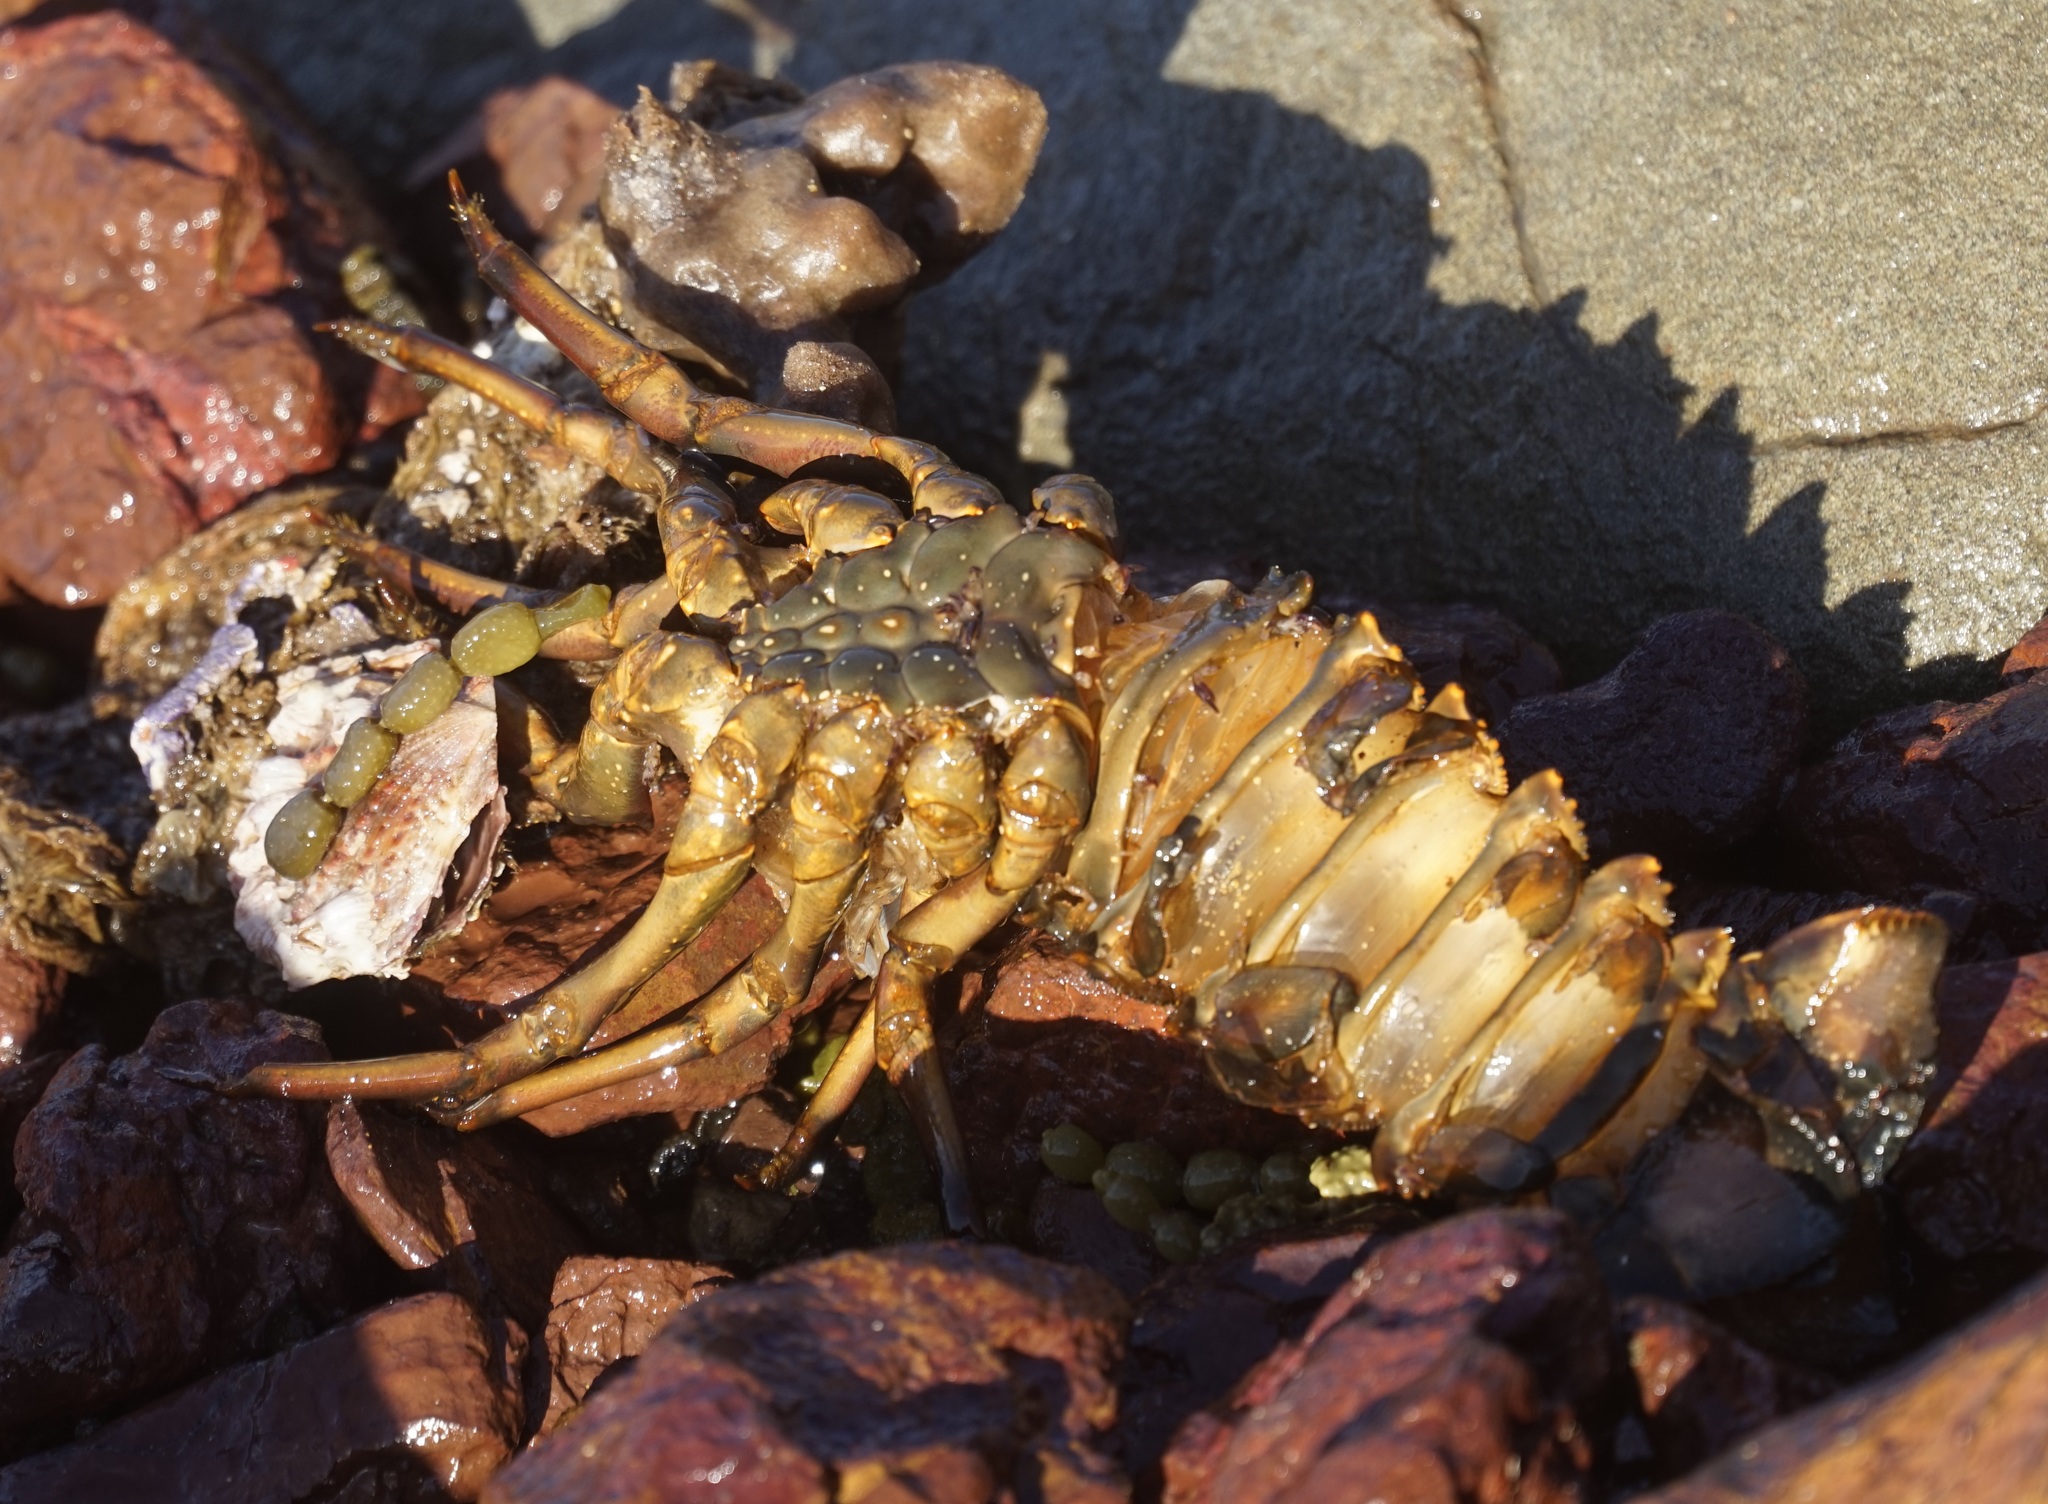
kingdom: Animalia
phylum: Arthropoda
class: Malacostraca
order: Decapoda
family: Palinuridae
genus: Sagmariasus
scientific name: Sagmariasus verreauxi
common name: Green rock lobster
